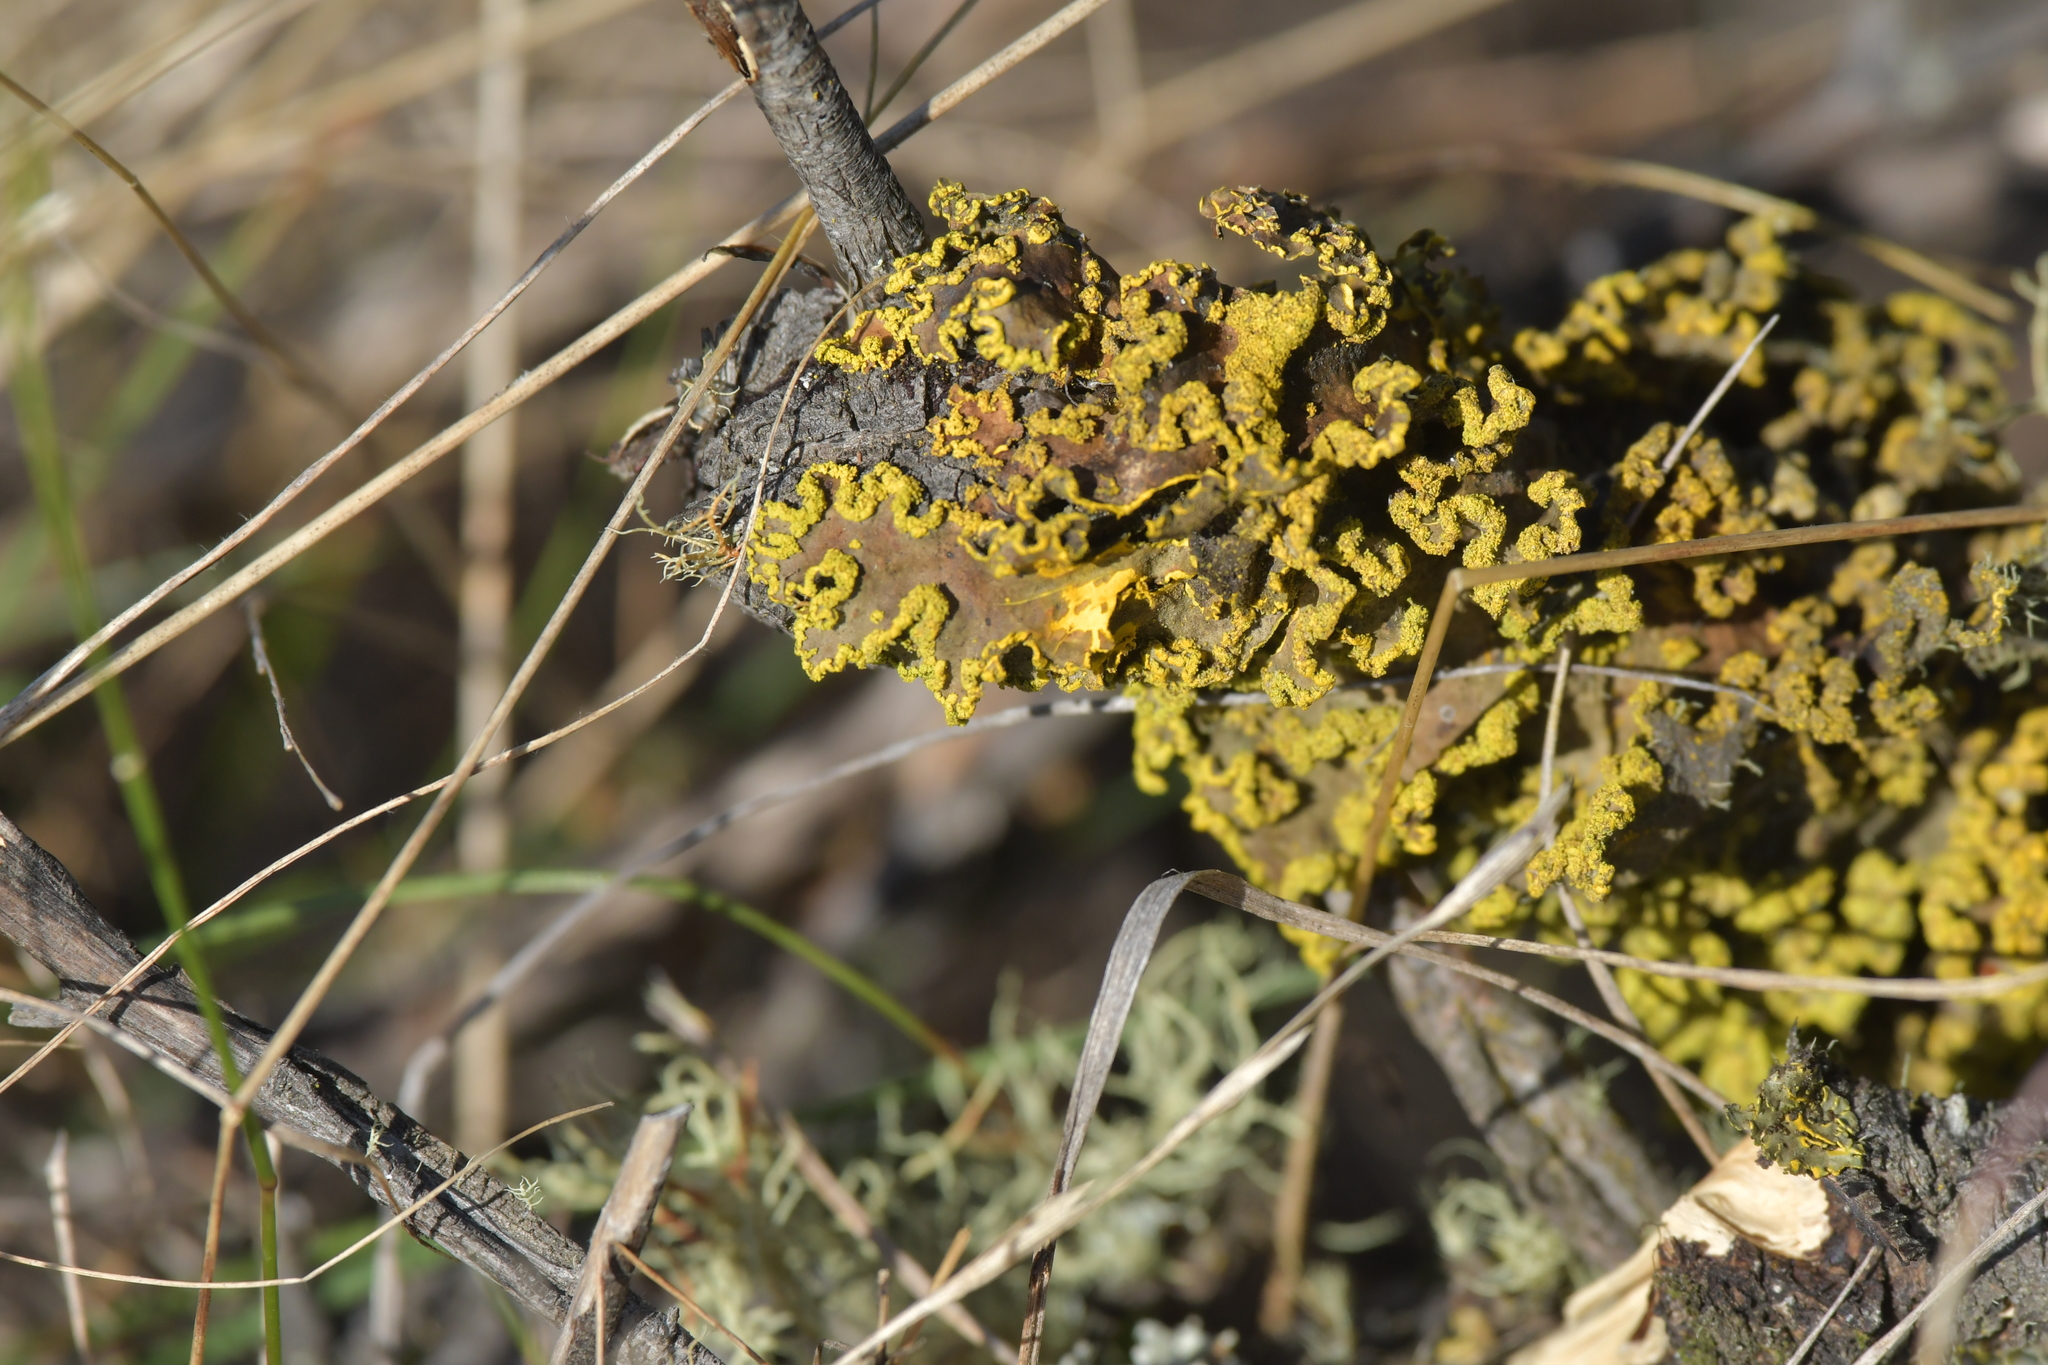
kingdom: Fungi
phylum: Ascomycota
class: Lecanoromycetes
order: Peltigerales
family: Lobariaceae
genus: Pseudocyphellaria
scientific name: Pseudocyphellaria aurata
